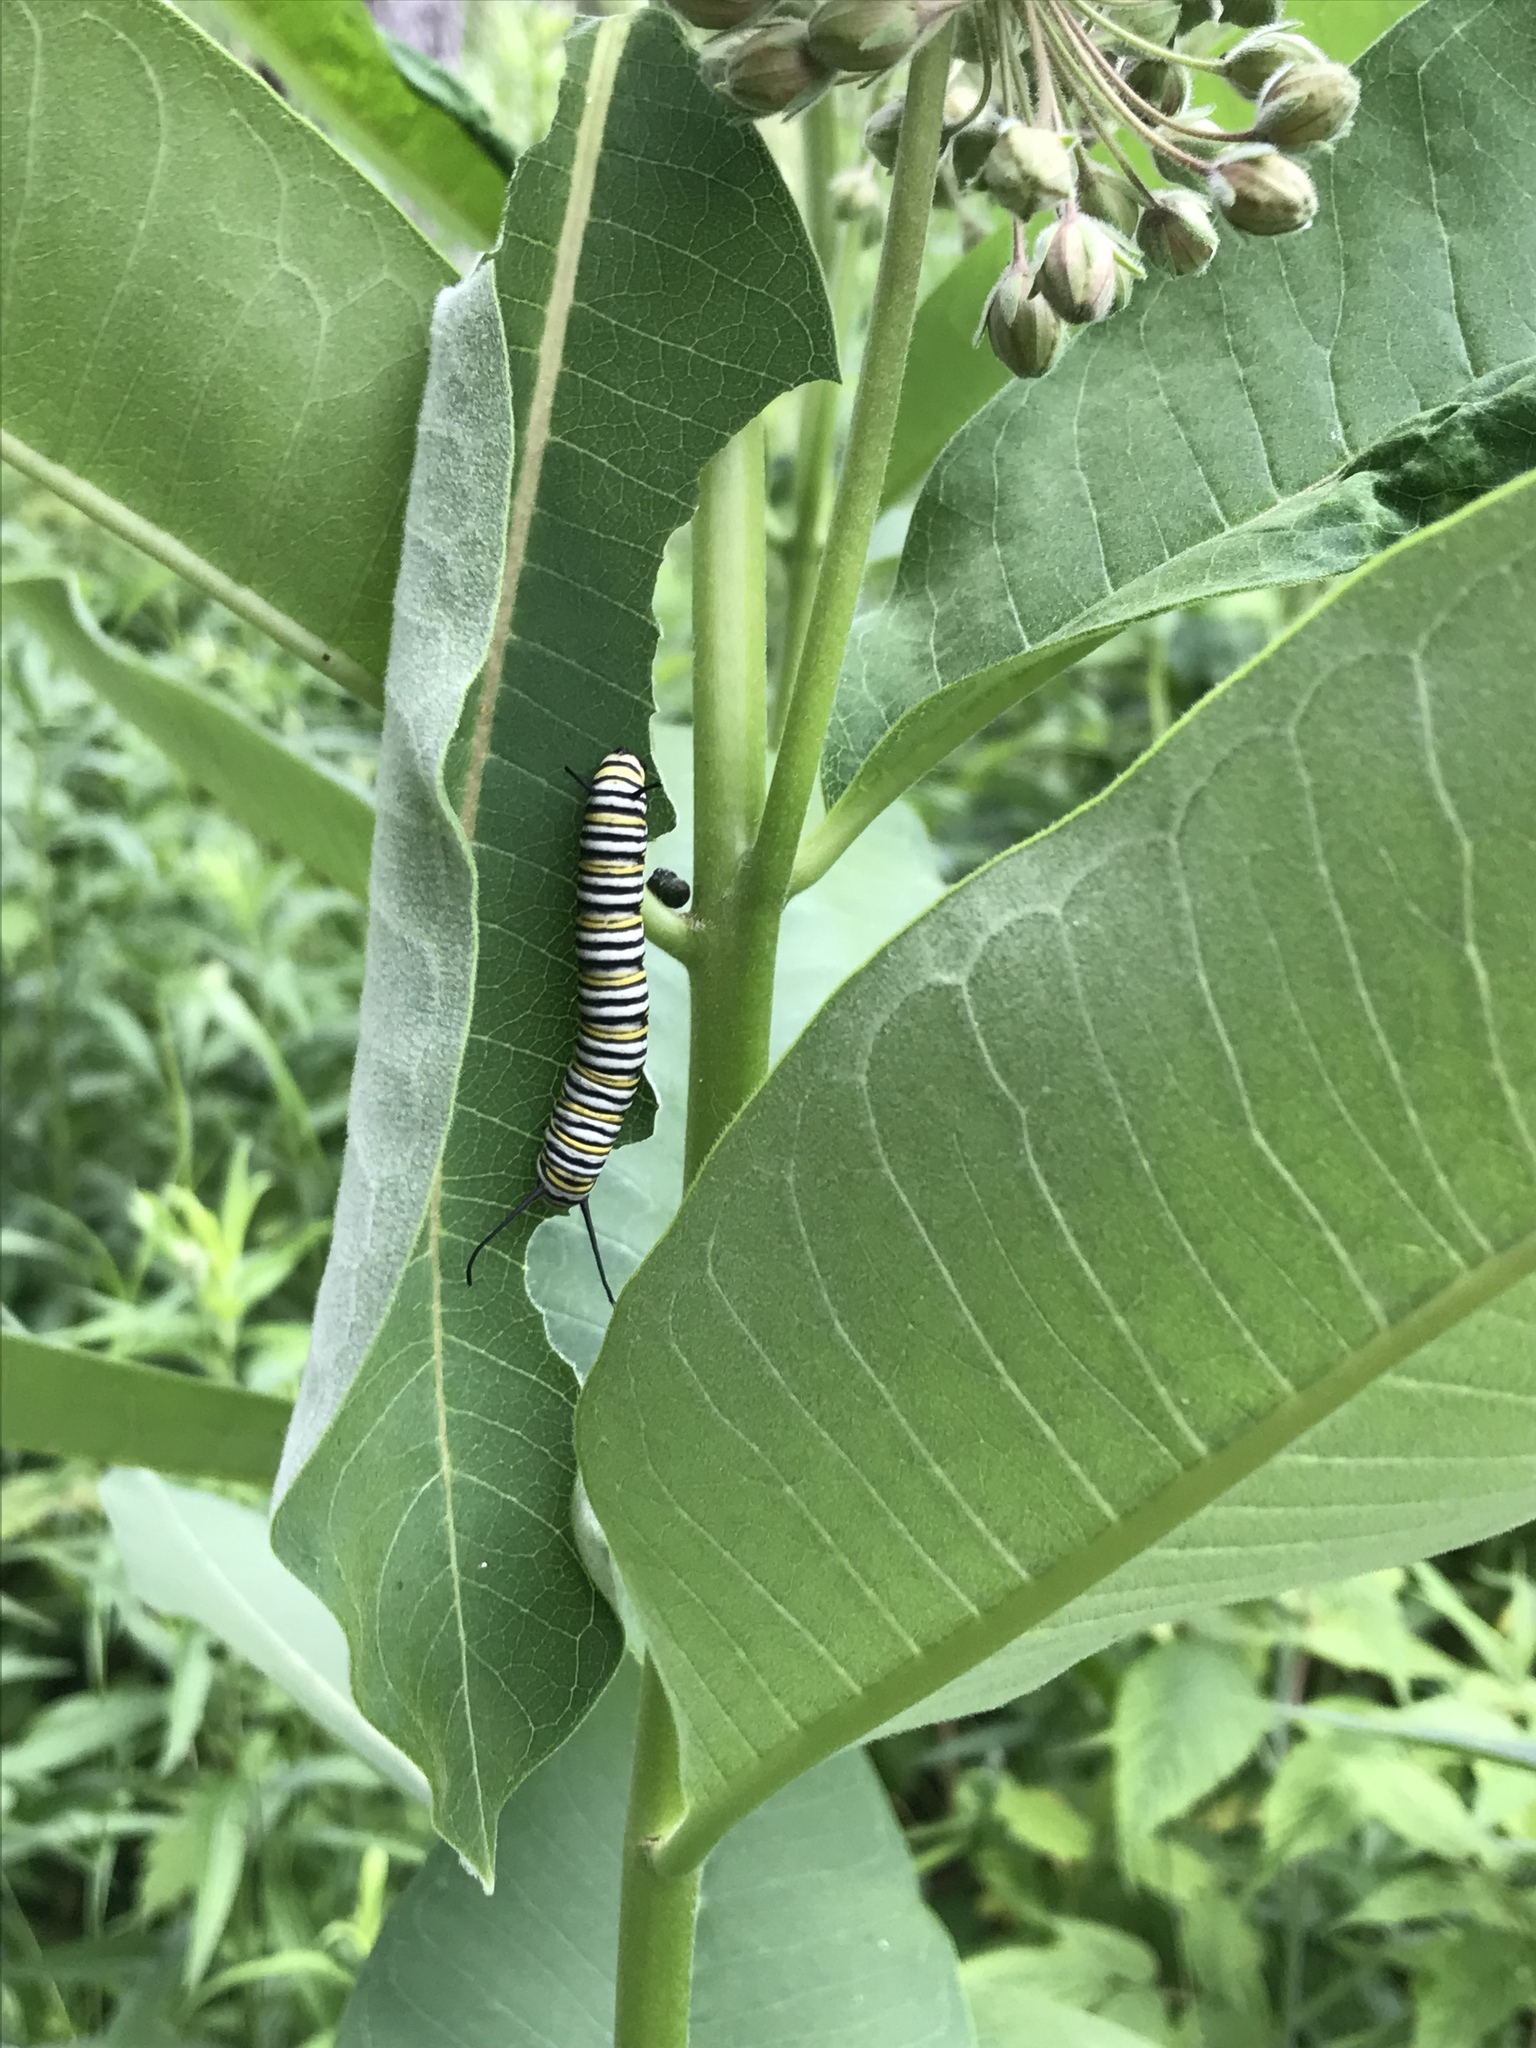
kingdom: Animalia
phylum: Arthropoda
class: Insecta
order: Lepidoptera
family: Nymphalidae
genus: Danaus
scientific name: Danaus plexippus
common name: Monarch
